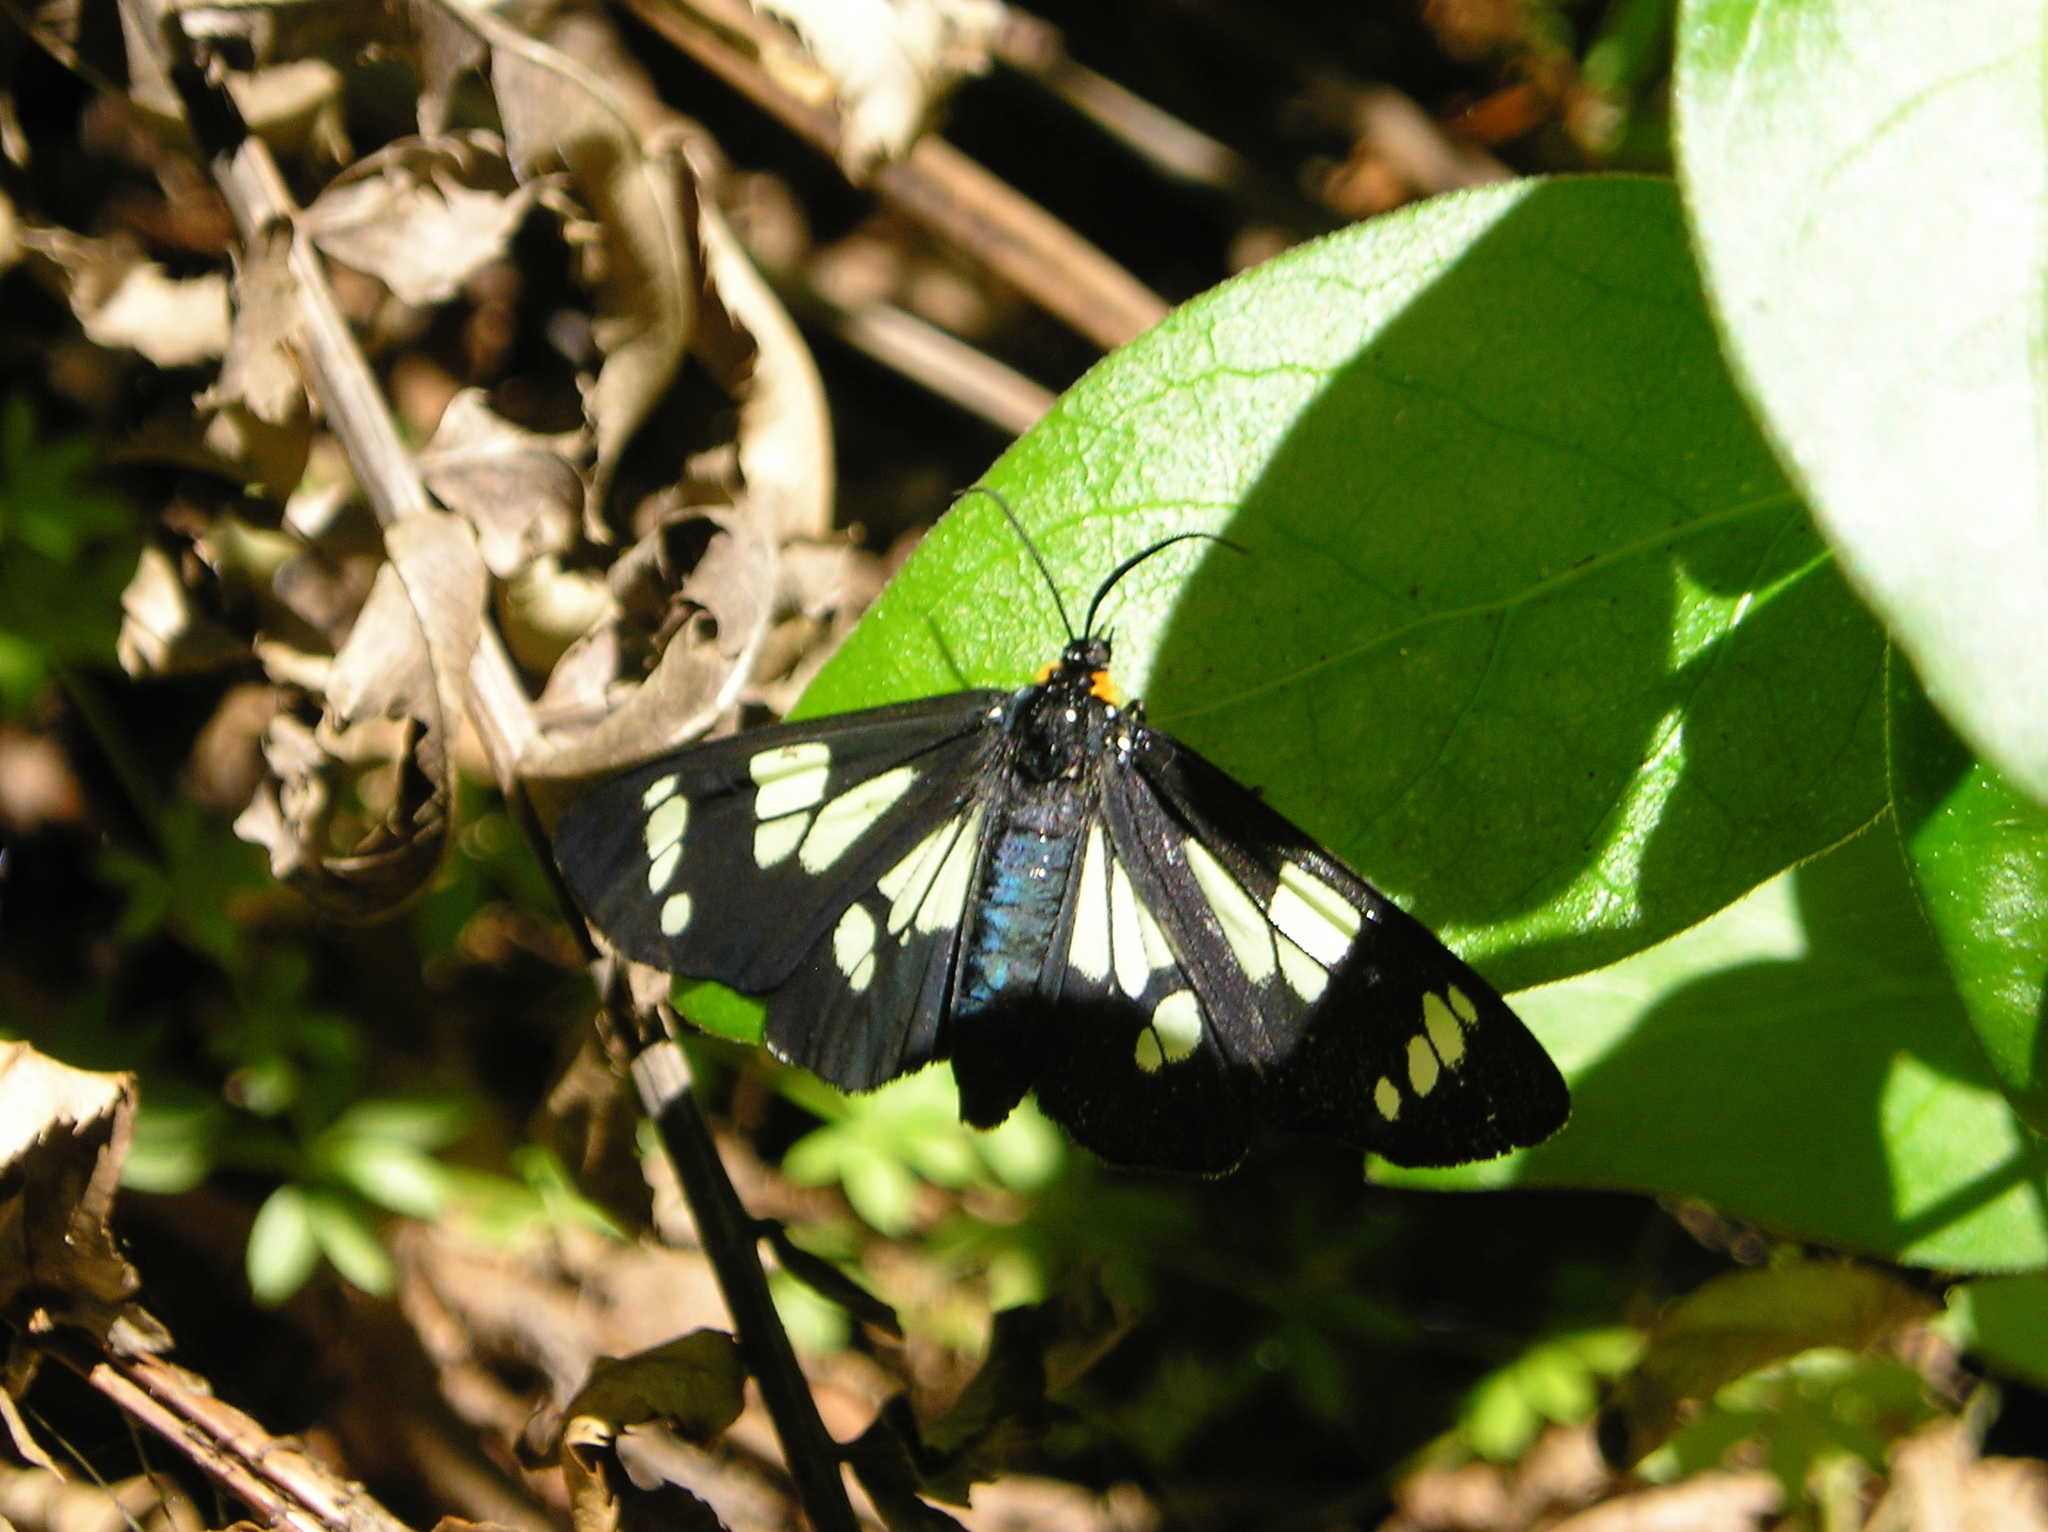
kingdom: Animalia
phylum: Arthropoda
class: Insecta
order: Lepidoptera
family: Erebidae
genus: Gnophaela
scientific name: Gnophaela latipennis
